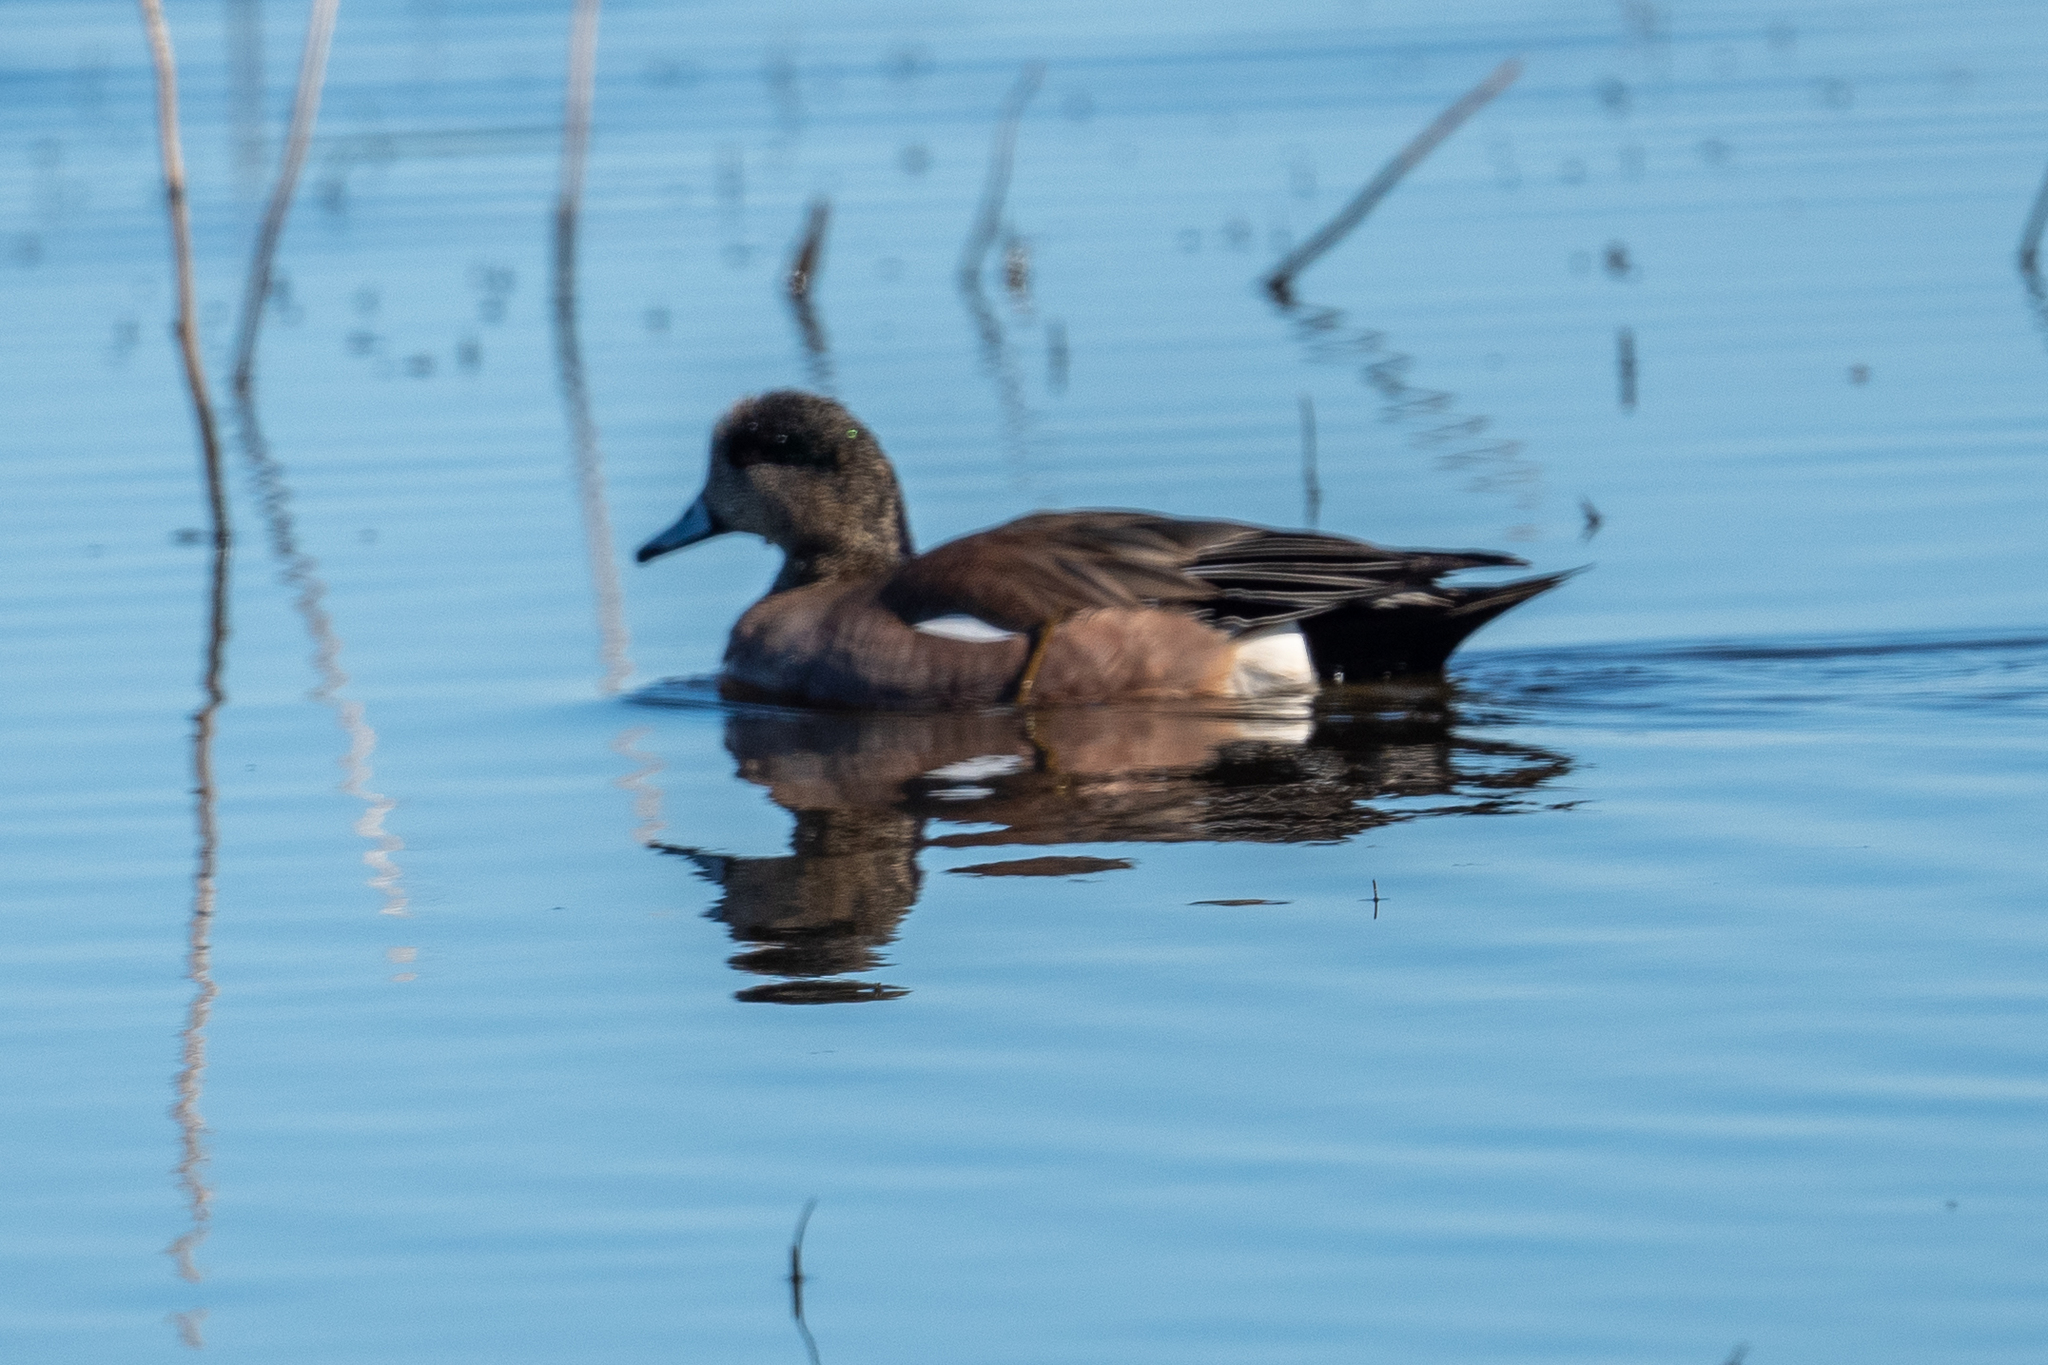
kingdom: Animalia
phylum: Chordata
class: Aves
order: Anseriformes
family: Anatidae
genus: Mareca
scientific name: Mareca americana
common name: American wigeon
